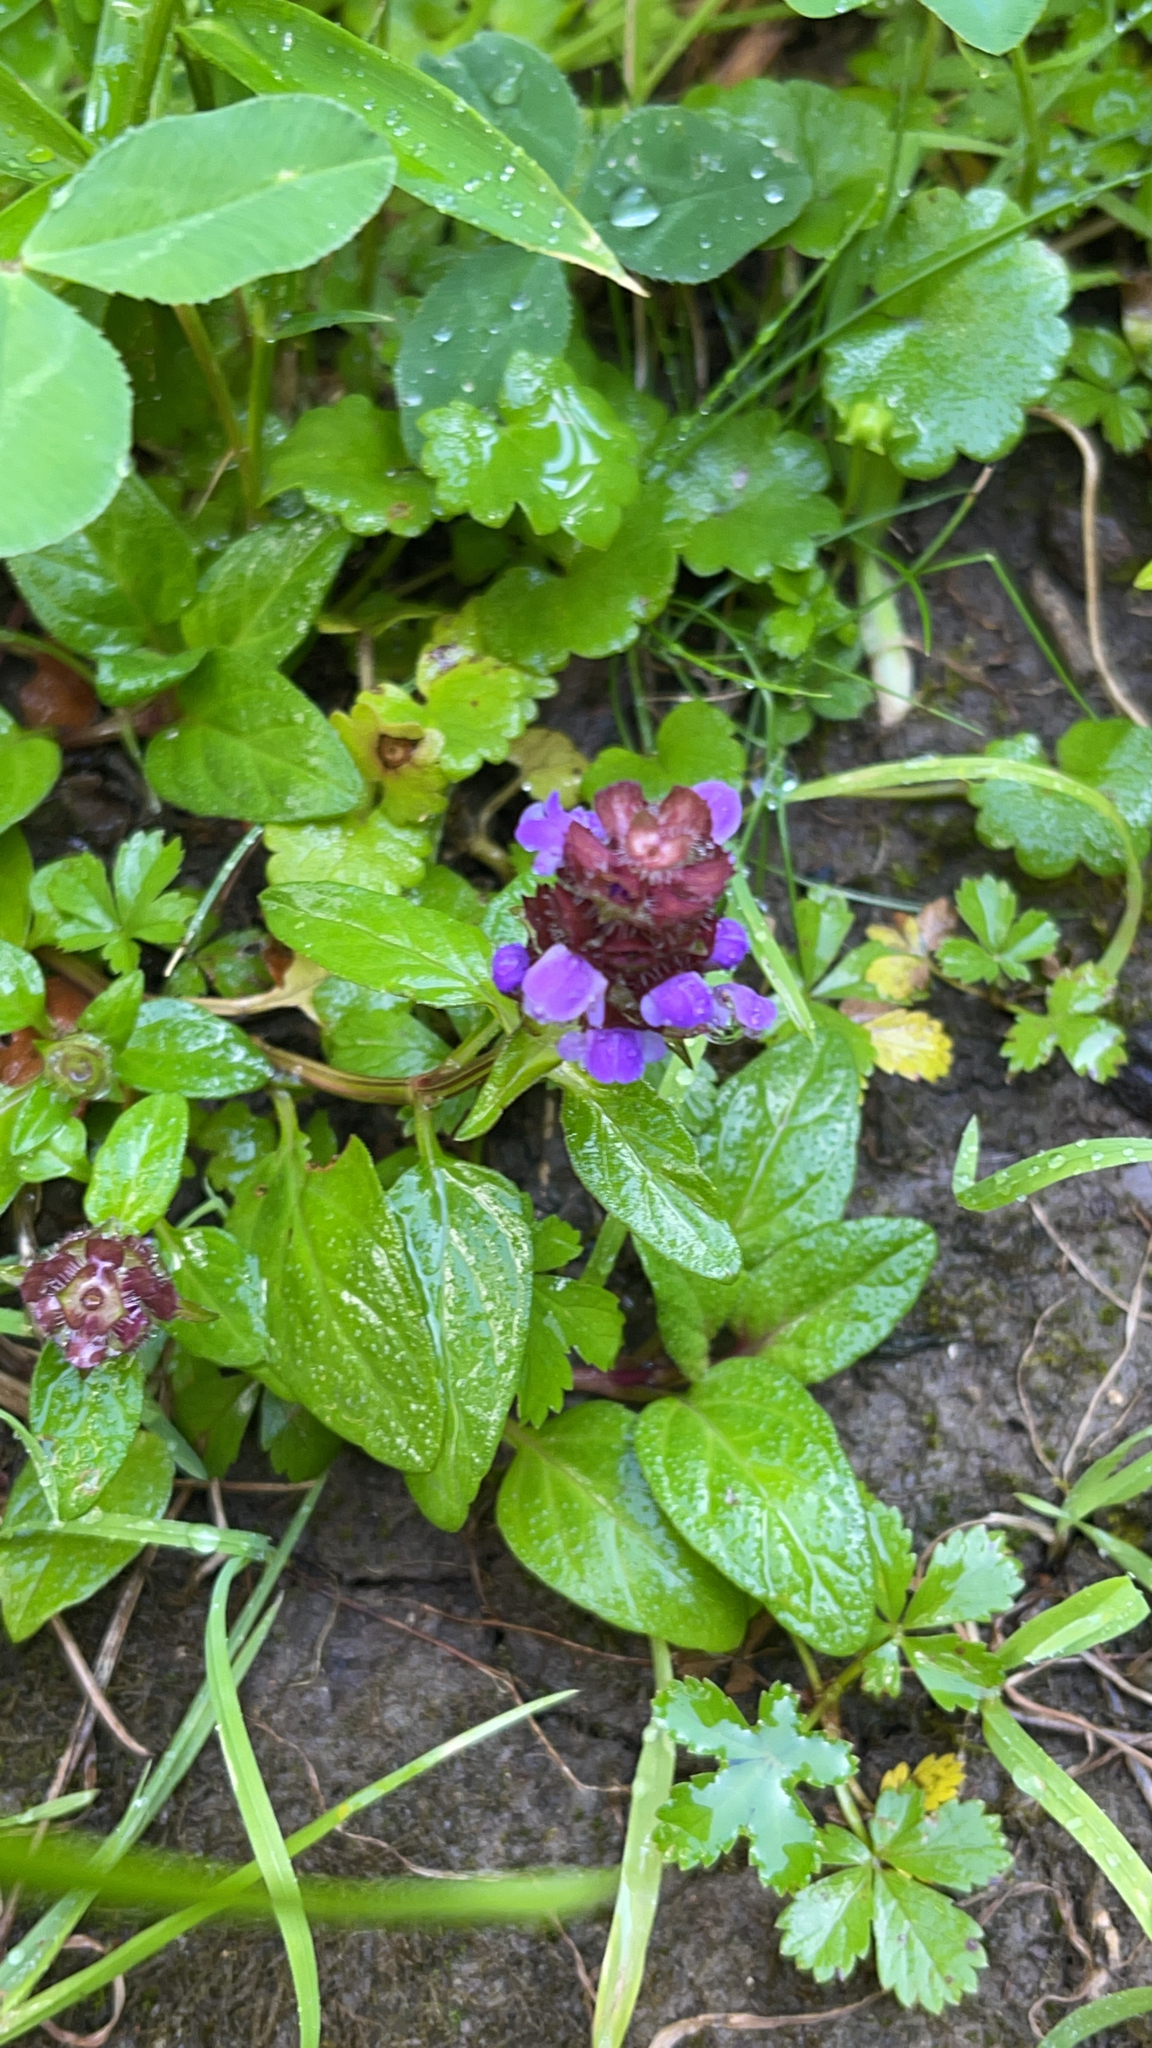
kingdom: Plantae
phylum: Tracheophyta
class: Magnoliopsida
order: Lamiales
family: Lamiaceae
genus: Prunella
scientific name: Prunella vulgaris
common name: Heal-all
